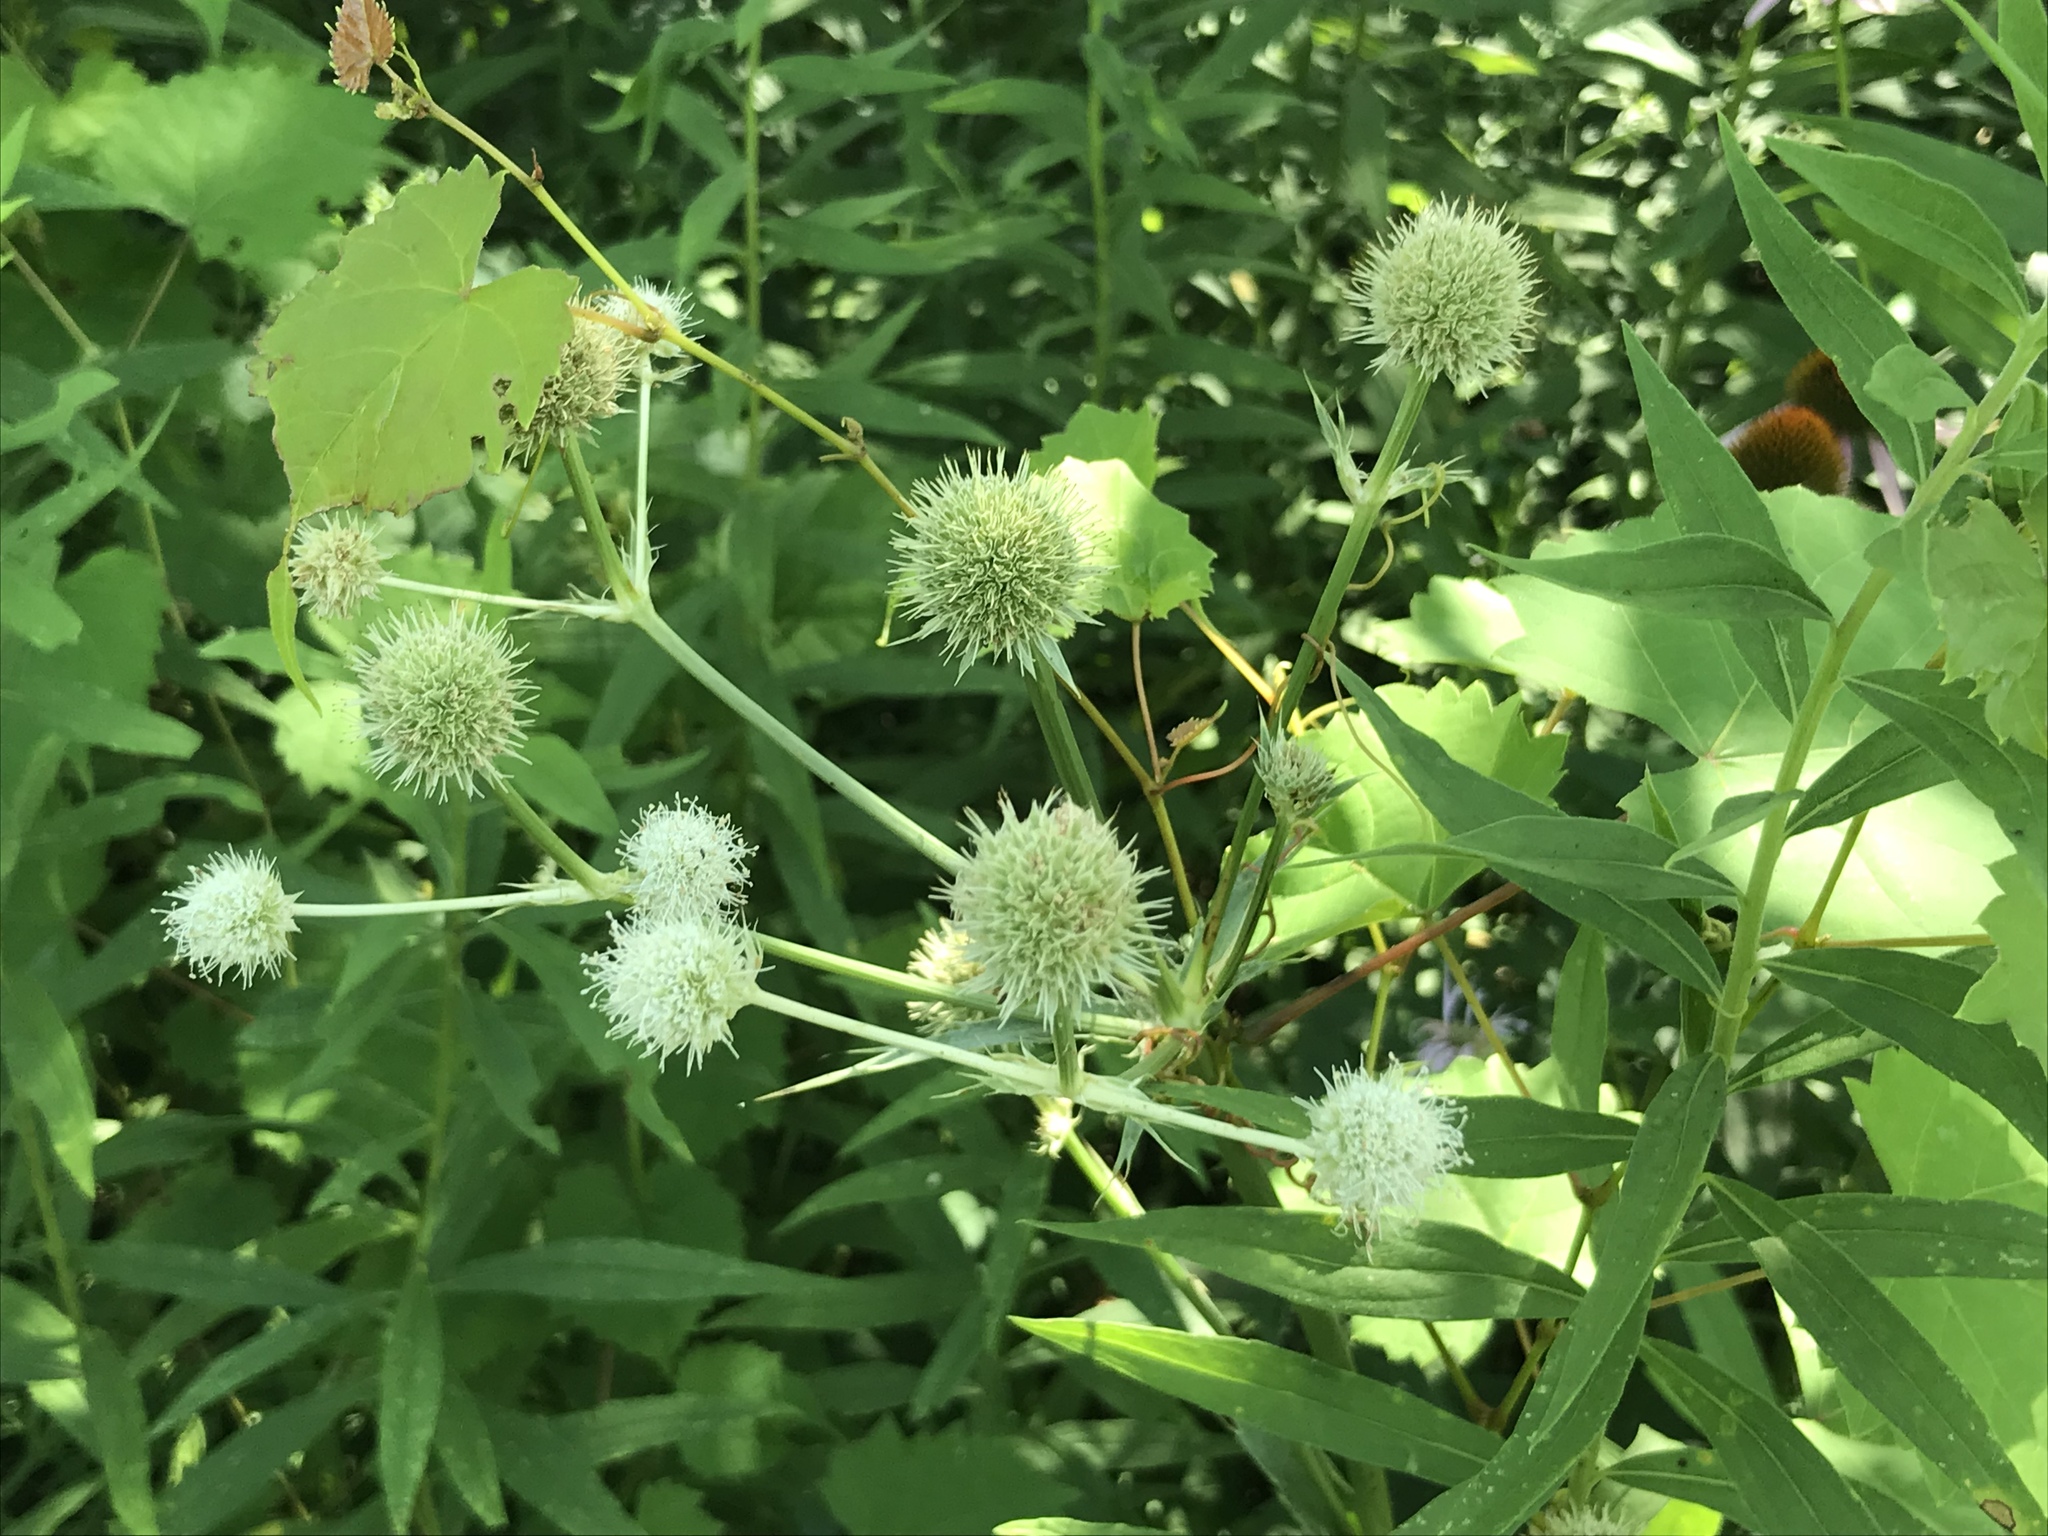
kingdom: Plantae
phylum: Tracheophyta
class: Magnoliopsida
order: Apiales
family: Apiaceae
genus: Eryngium
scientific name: Eryngium yuccifolium
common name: Button eryngo
